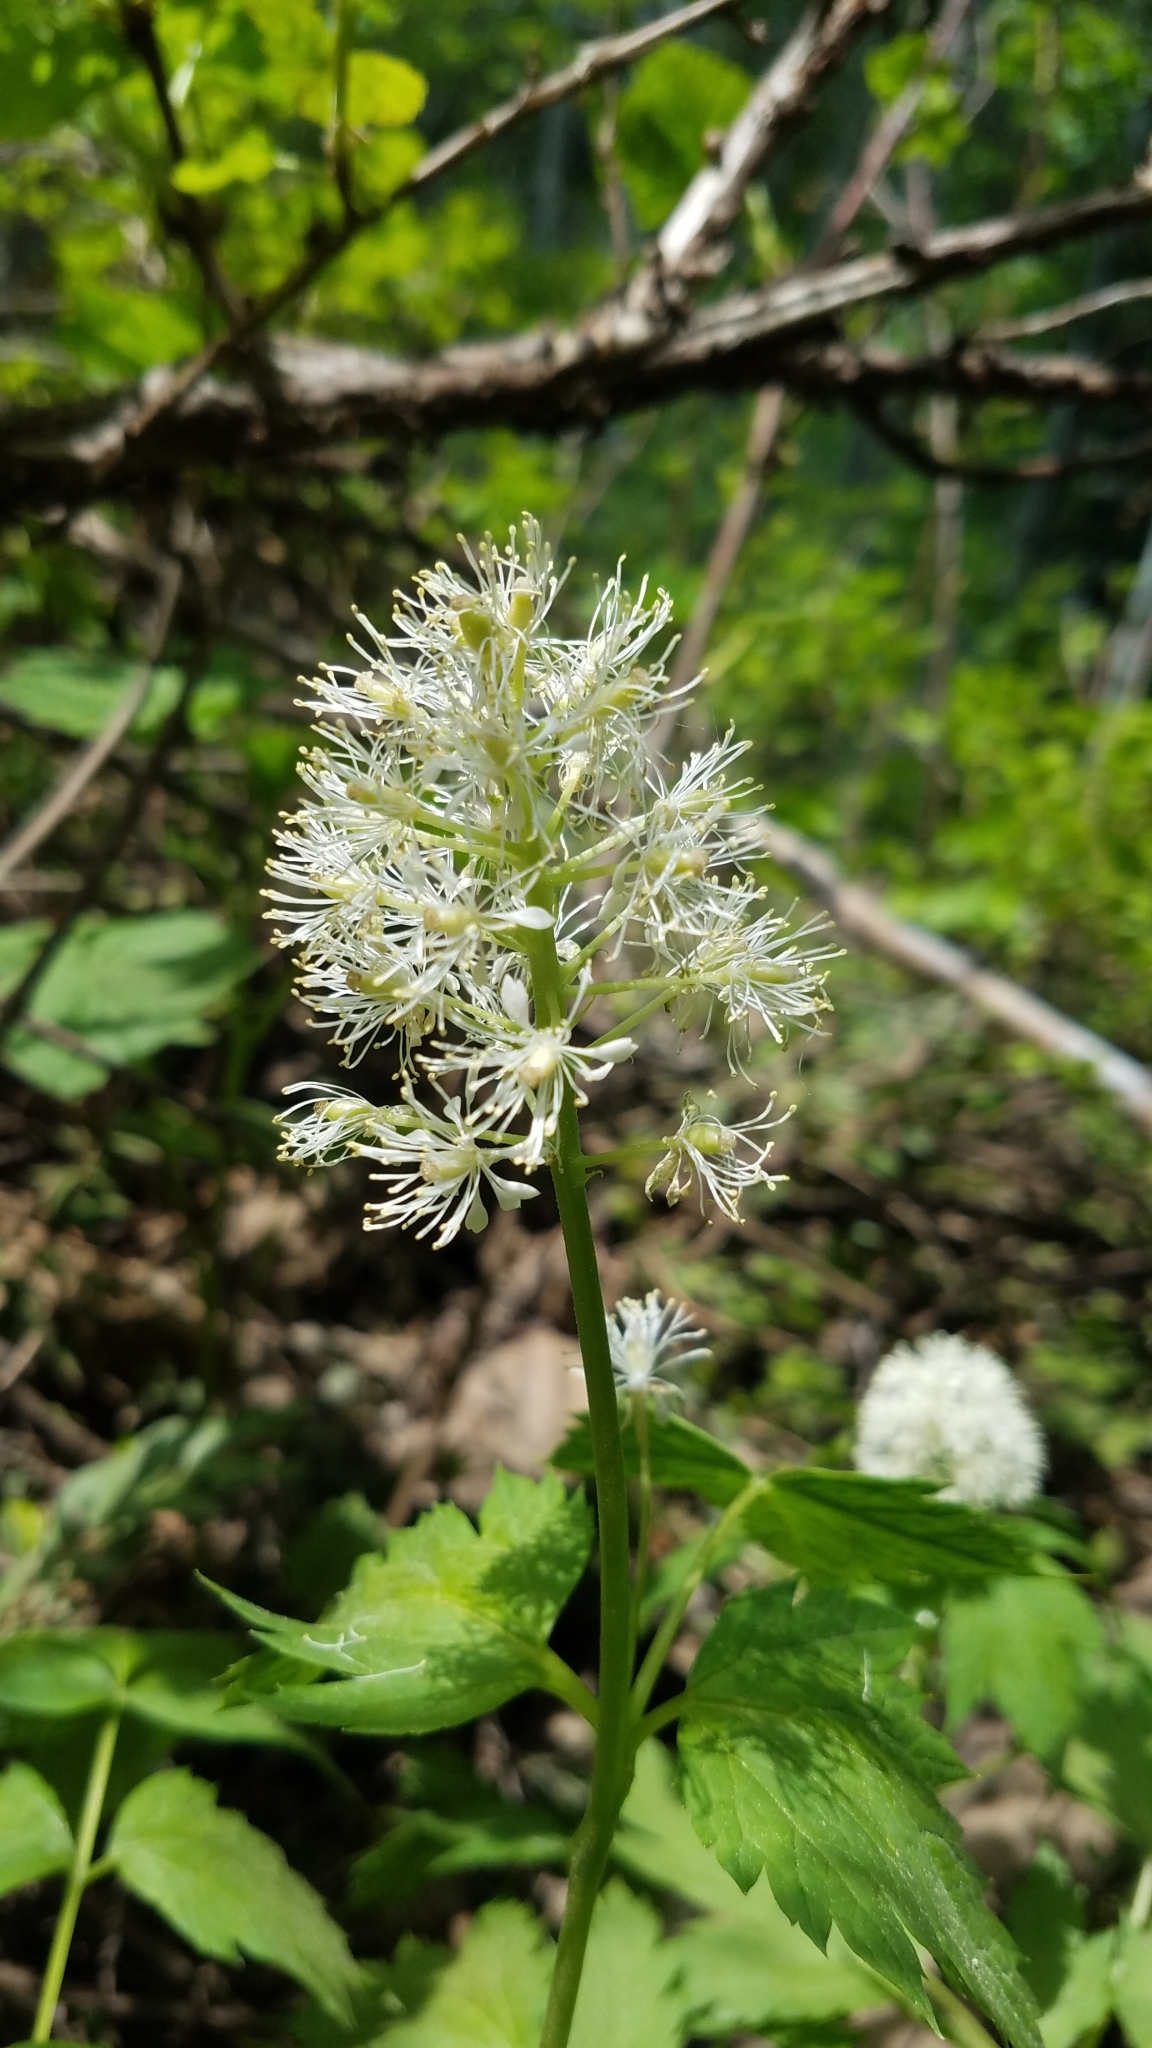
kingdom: Plantae
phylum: Tracheophyta
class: Magnoliopsida
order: Ranunculales
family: Ranunculaceae
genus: Actaea
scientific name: Actaea rubra
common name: Red baneberry
